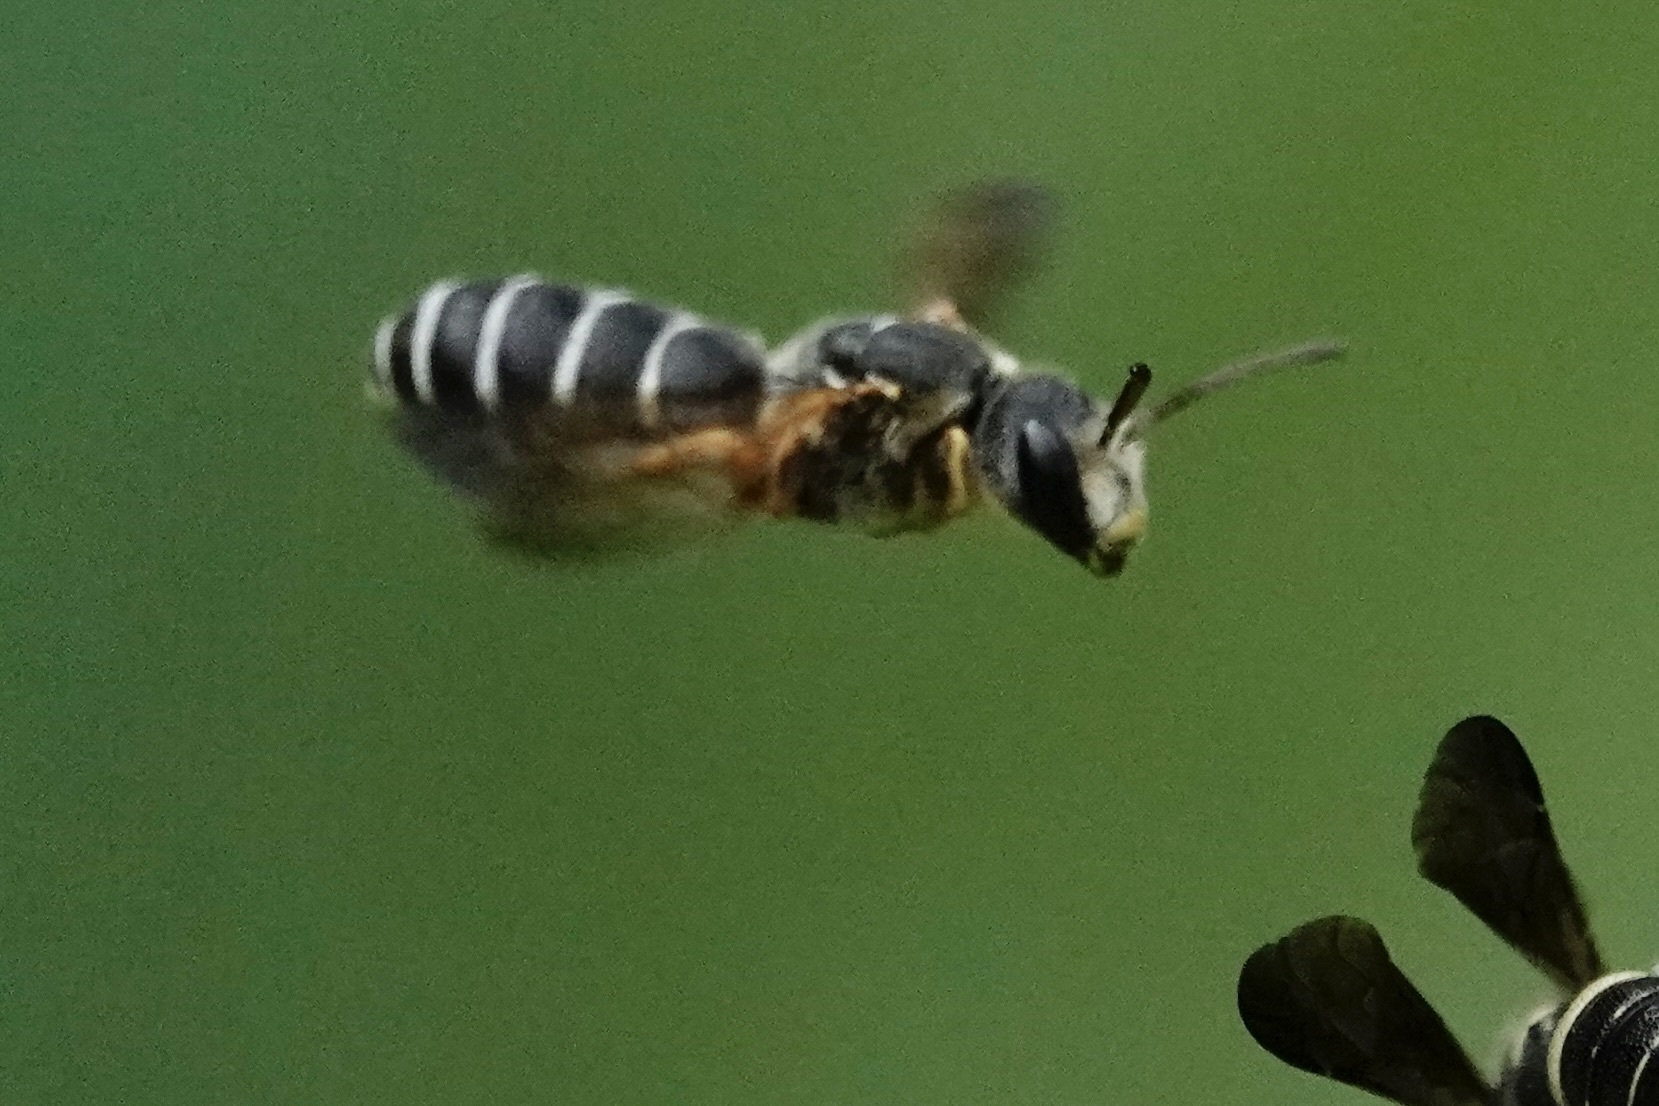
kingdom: Animalia
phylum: Arthropoda
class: Insecta
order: Hymenoptera
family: Halictidae
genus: Halictus
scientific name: Halictus parallelus
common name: Parallel-striped sweat bee
